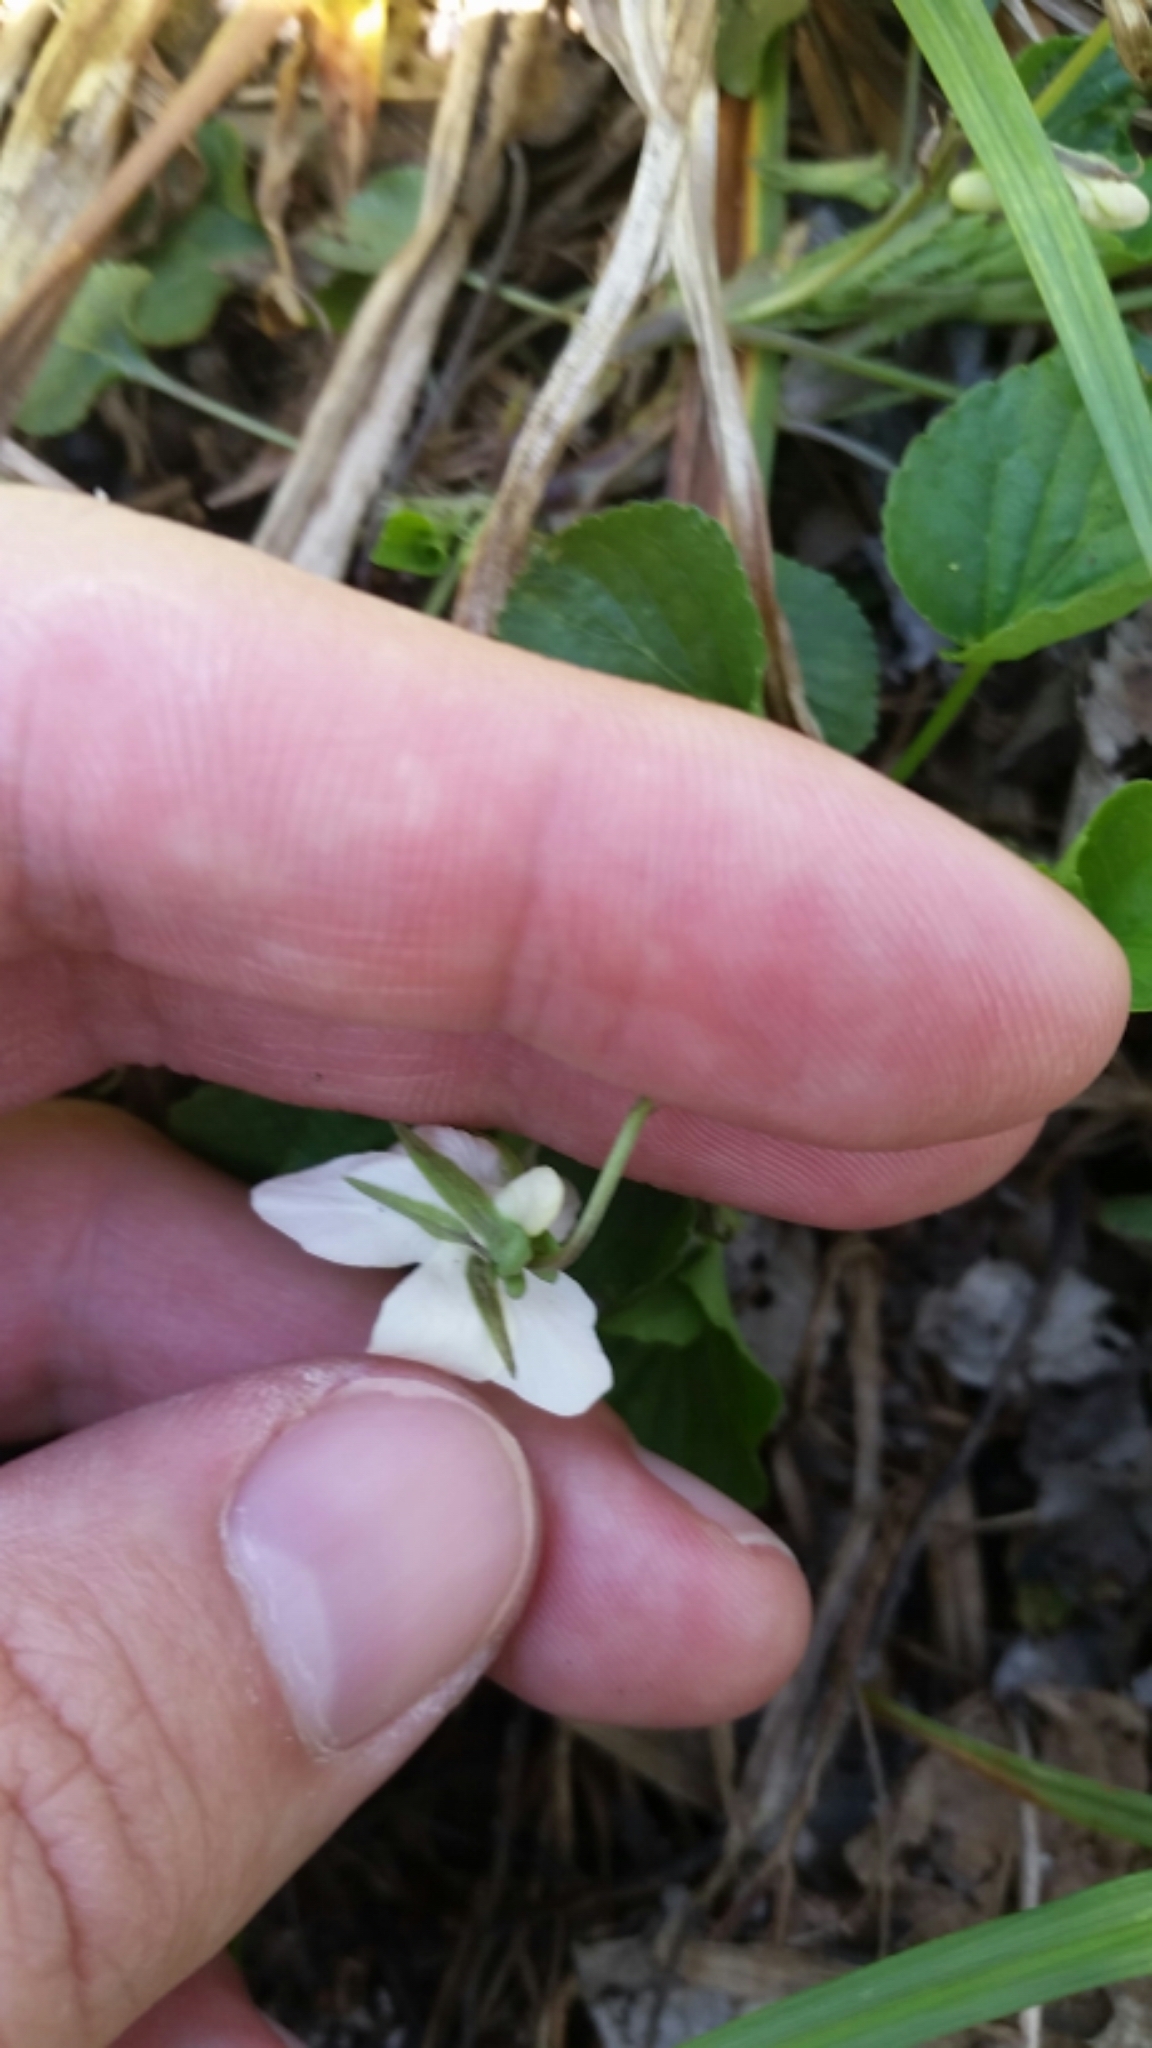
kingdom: Plantae
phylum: Tracheophyta
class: Magnoliopsida
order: Malpighiales
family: Violaceae
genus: Viola
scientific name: Viola striata
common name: Cream violet
